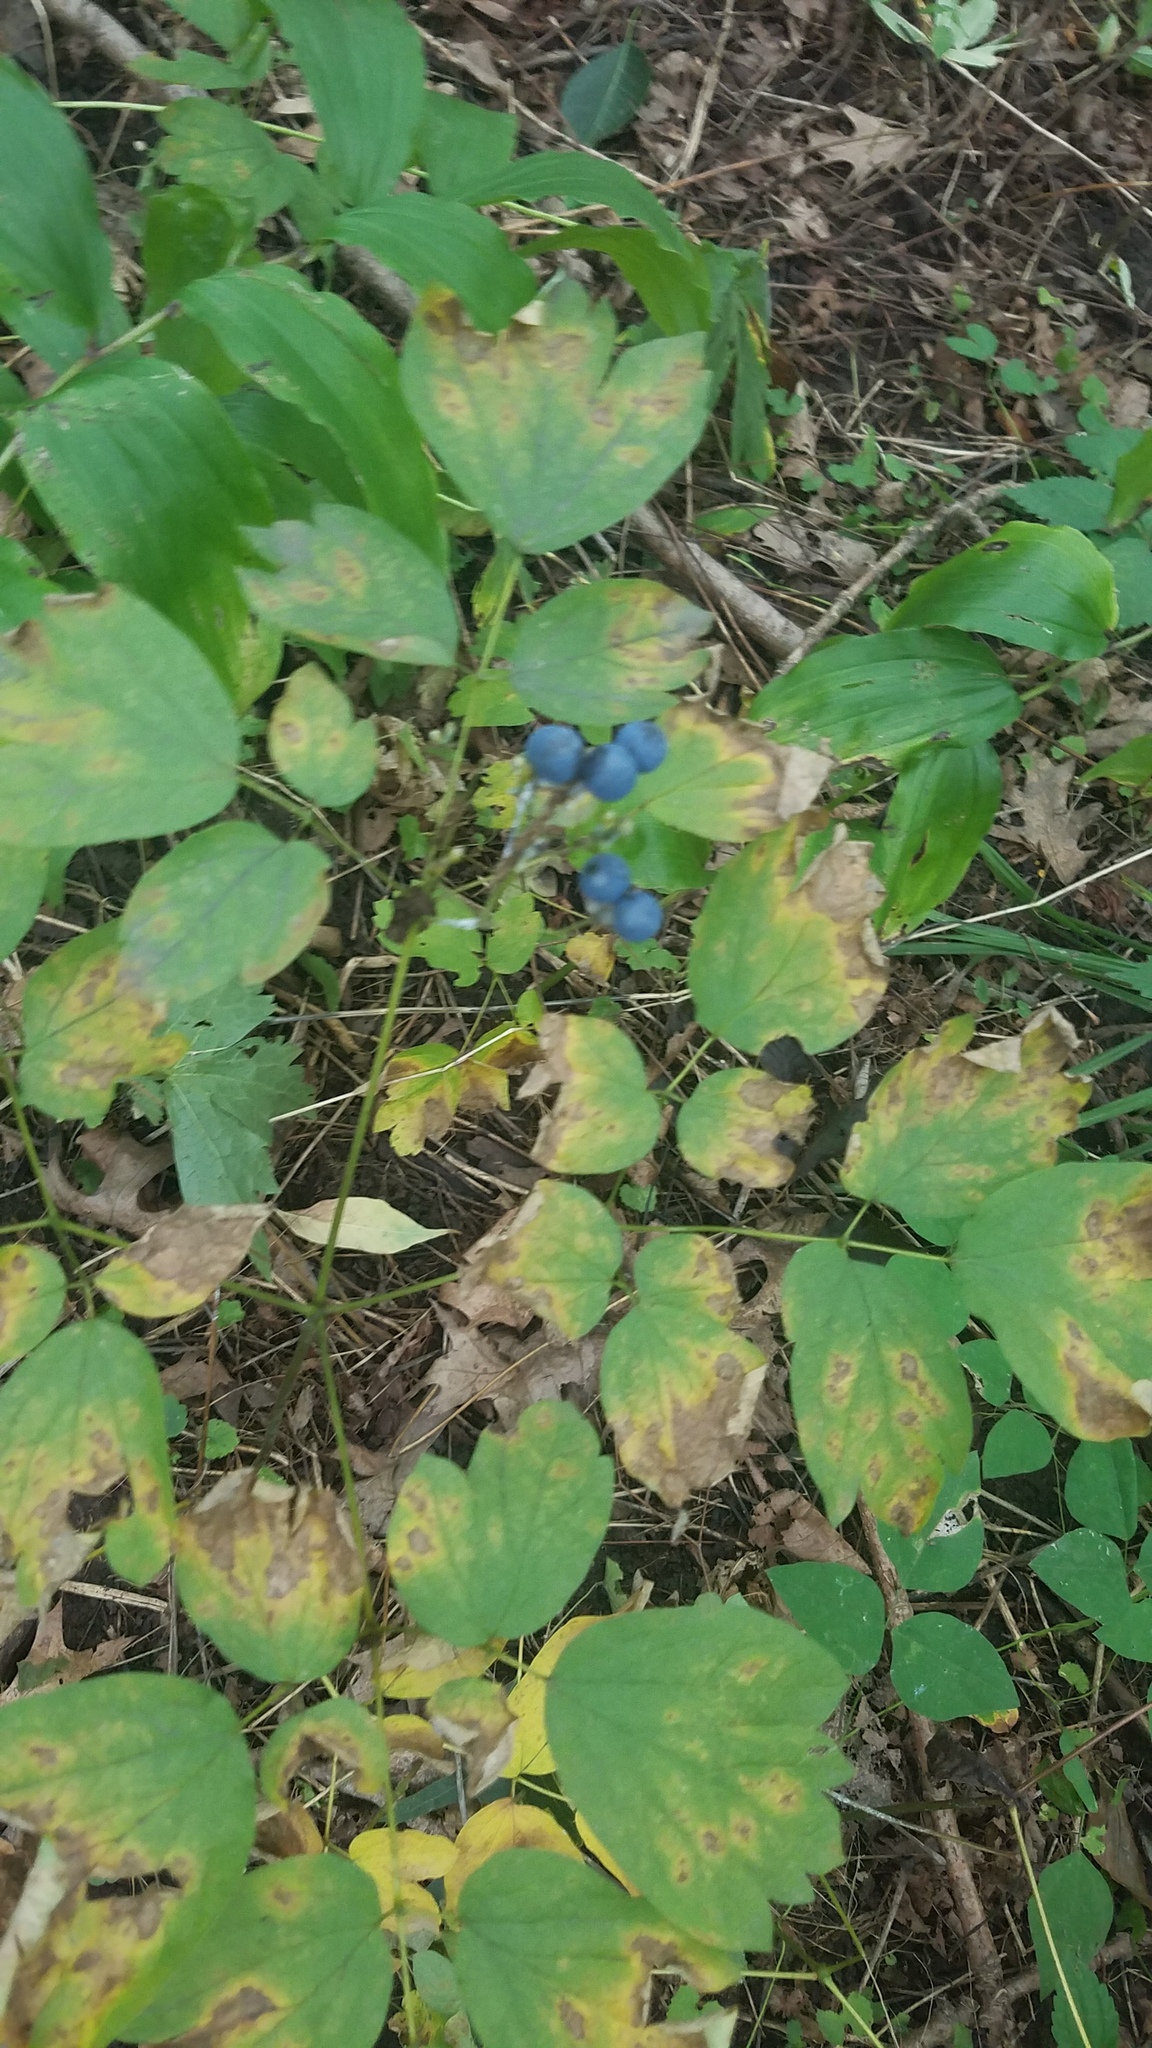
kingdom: Plantae
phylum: Tracheophyta
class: Magnoliopsida
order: Ranunculales
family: Berberidaceae
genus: Caulophyllum
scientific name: Caulophyllum thalictroides
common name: Blue cohosh
